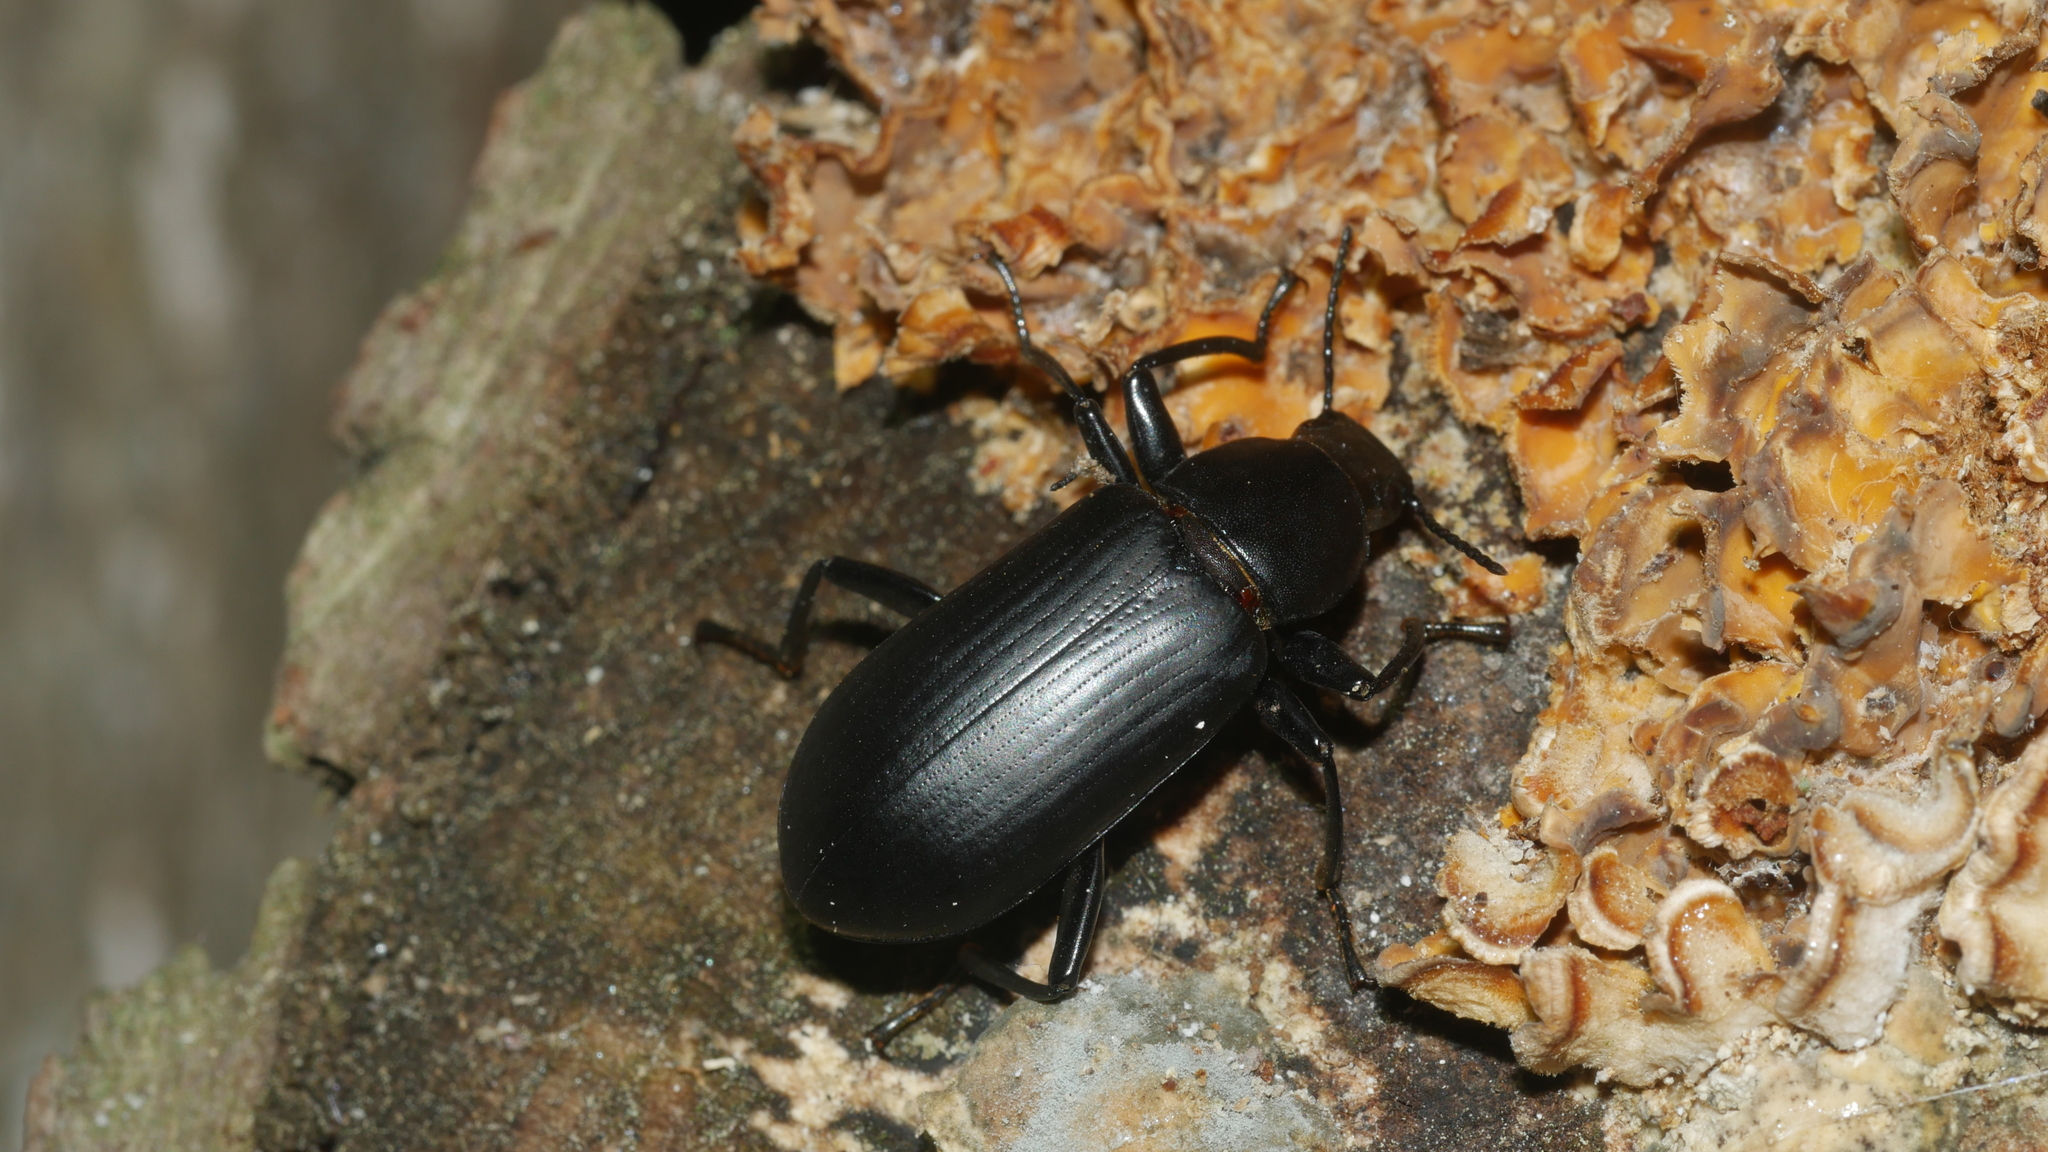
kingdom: Animalia
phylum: Arthropoda
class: Insecta
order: Coleoptera
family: Tenebrionidae
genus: Alobates
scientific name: Alobates
